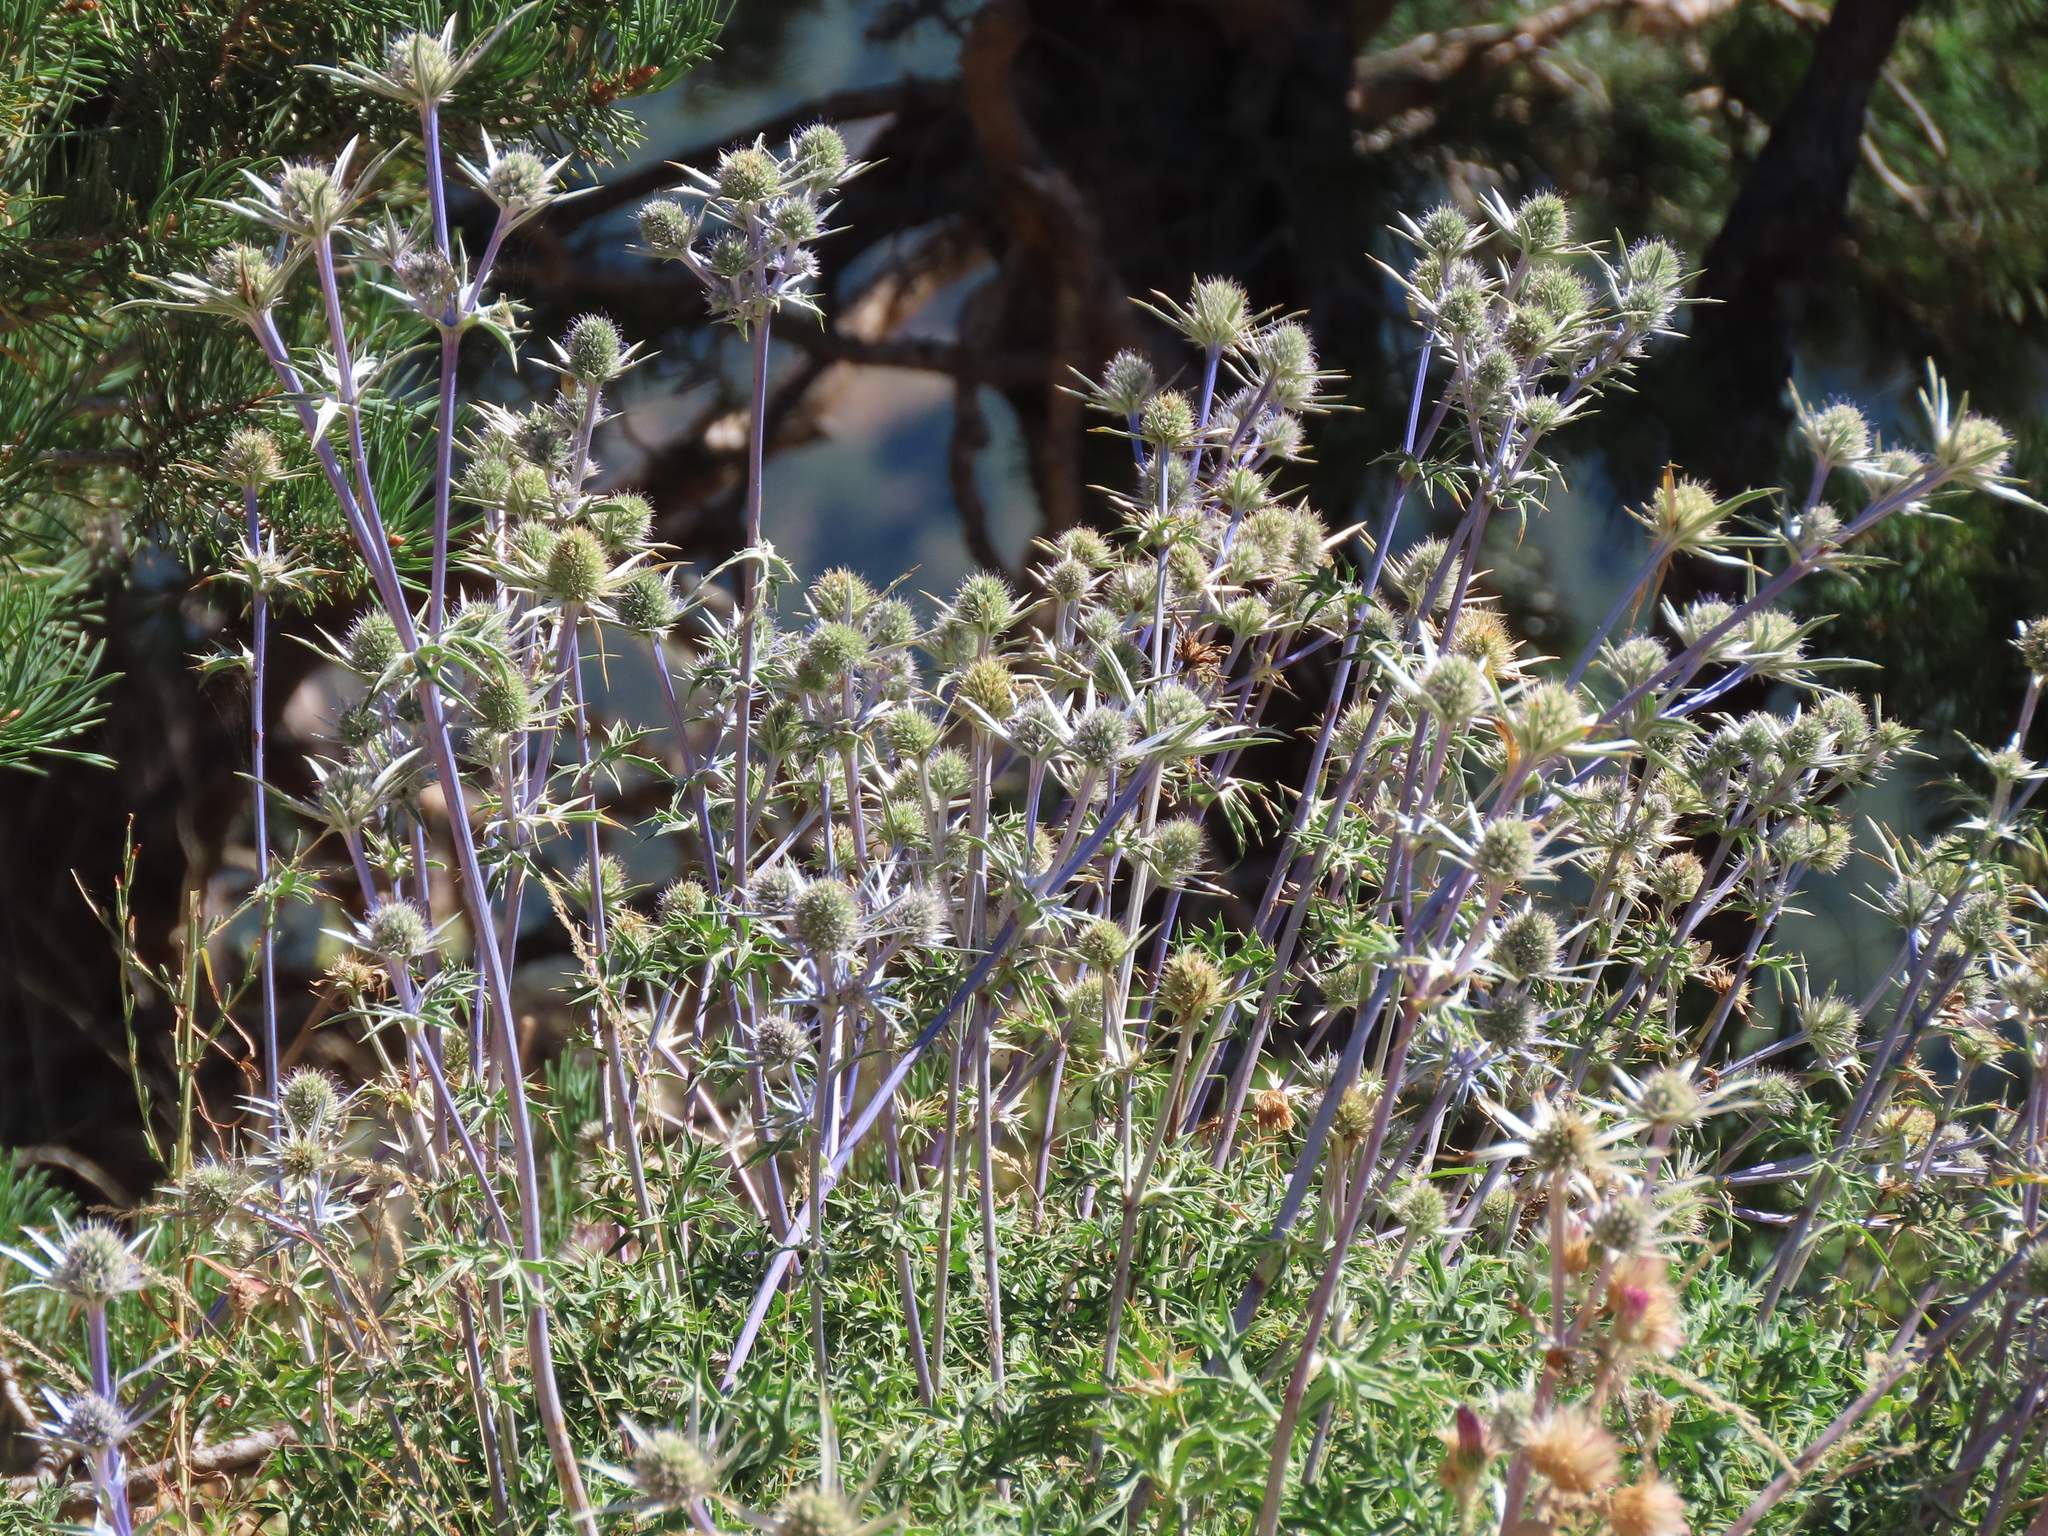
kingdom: Plantae
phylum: Tracheophyta
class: Magnoliopsida
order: Apiales
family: Apiaceae
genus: Eryngium
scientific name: Eryngium bourgatii
